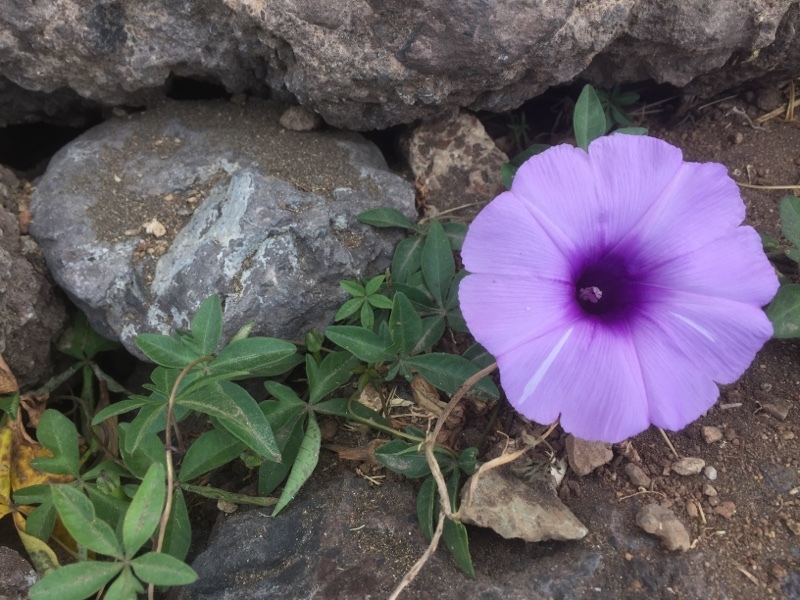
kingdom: Plantae
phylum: Tracheophyta
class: Magnoliopsida
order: Solanales
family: Convolvulaceae
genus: Ipomoea
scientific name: Ipomoea cairica
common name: Mile a minute vine
